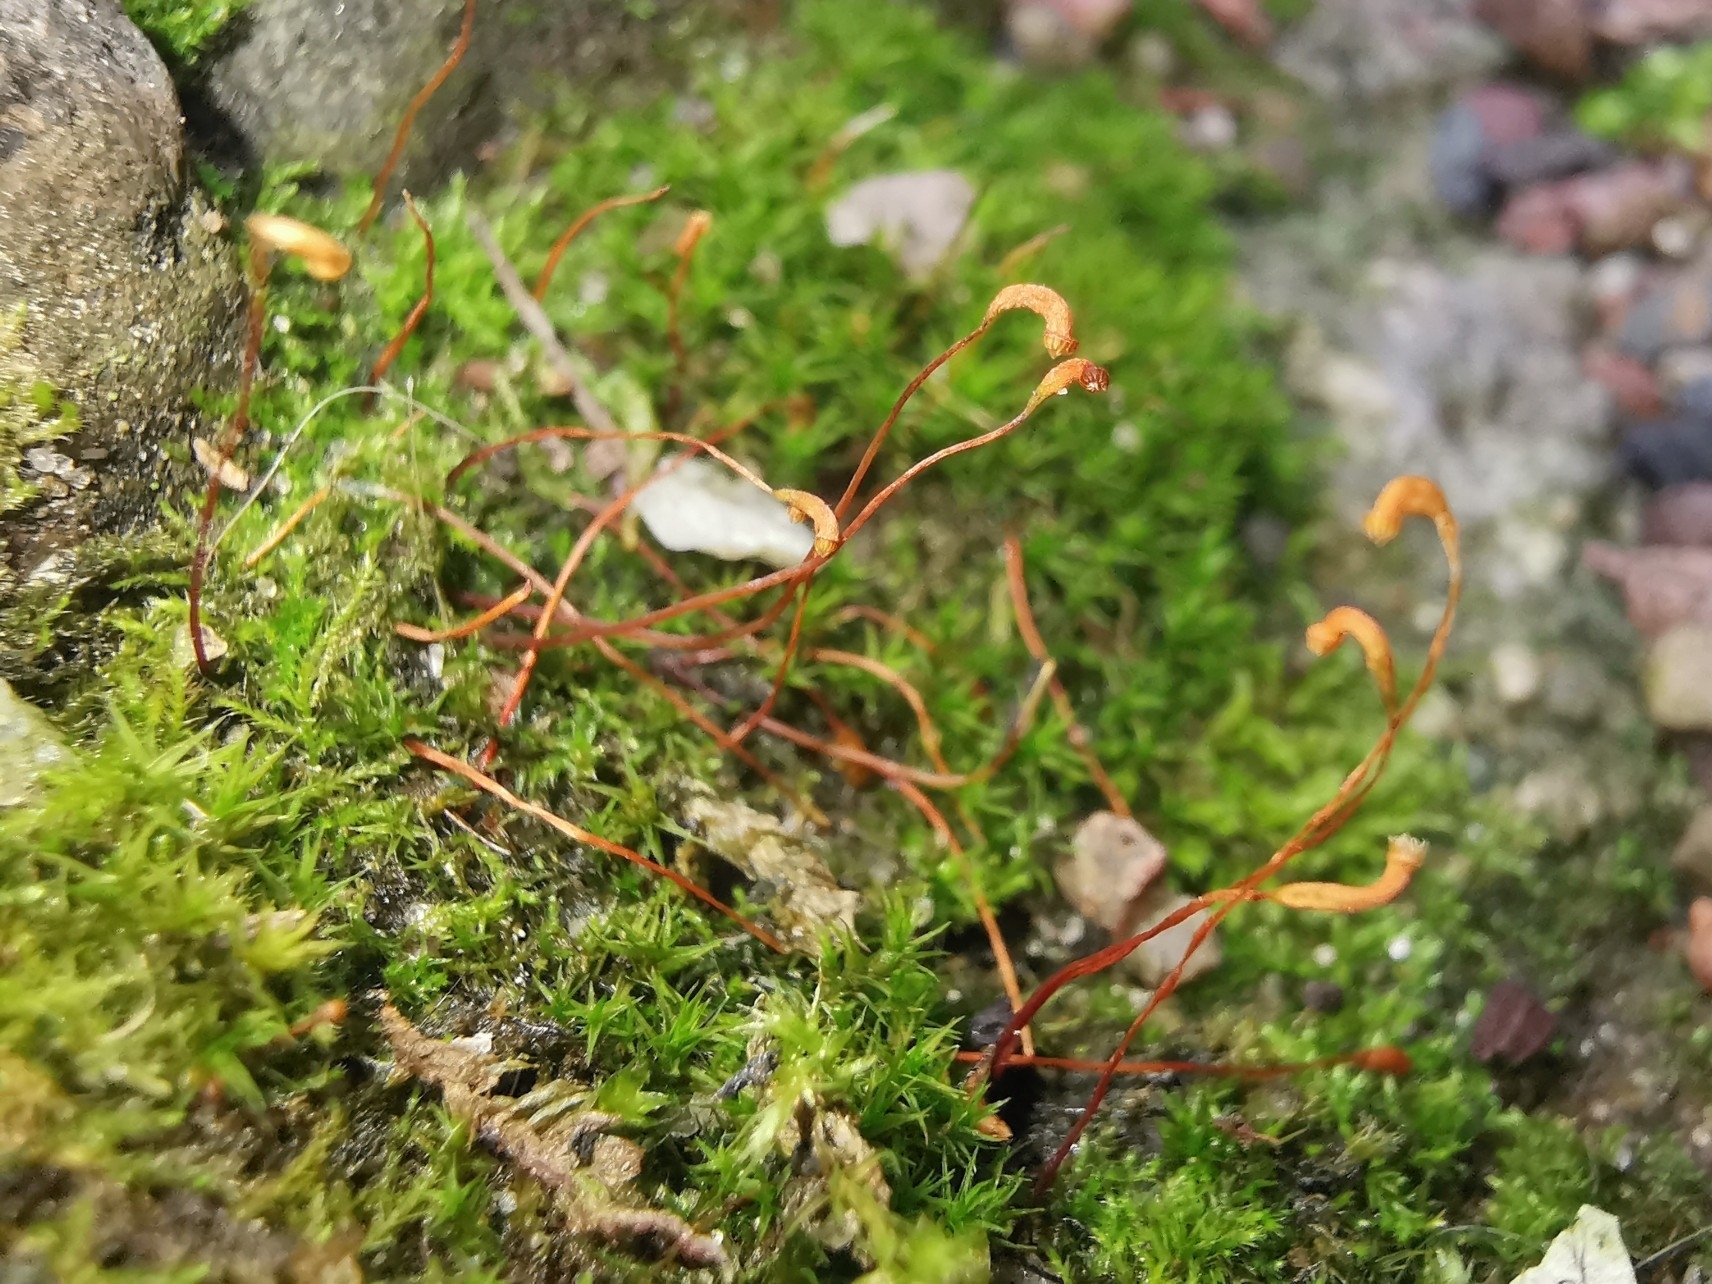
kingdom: Plantae
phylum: Bryophyta
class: Bryopsida
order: Hypnales
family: Amblystegiaceae
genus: Amblystegium
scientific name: Amblystegium serpens
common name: Jurkatzka's feather moss
